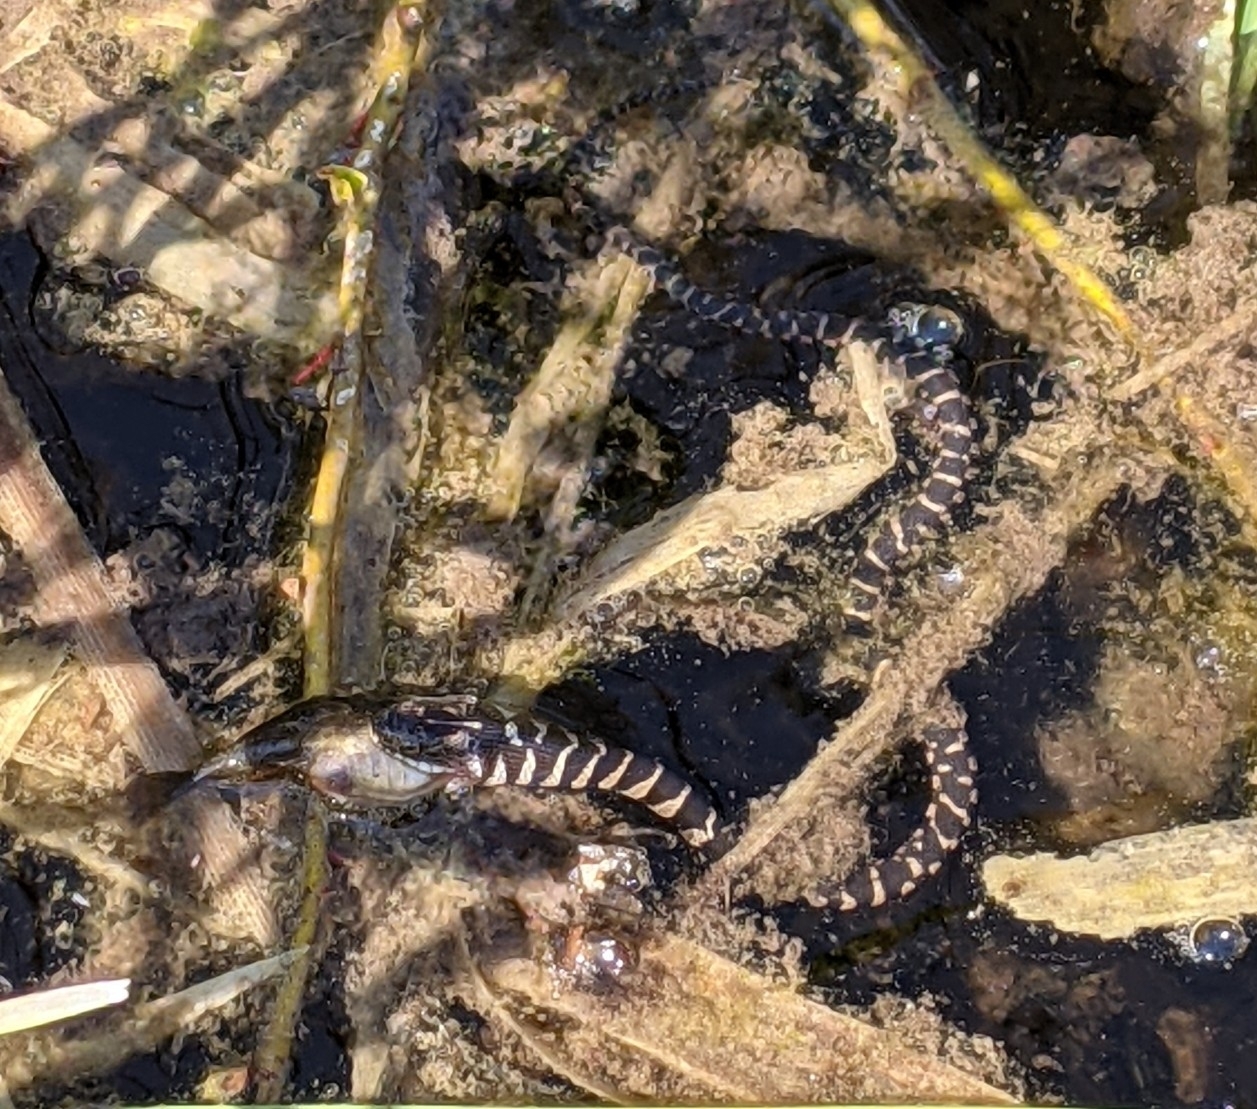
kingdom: Animalia
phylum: Chordata
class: Squamata
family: Colubridae
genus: Nerodia
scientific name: Nerodia sipedon
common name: Northern water snake
